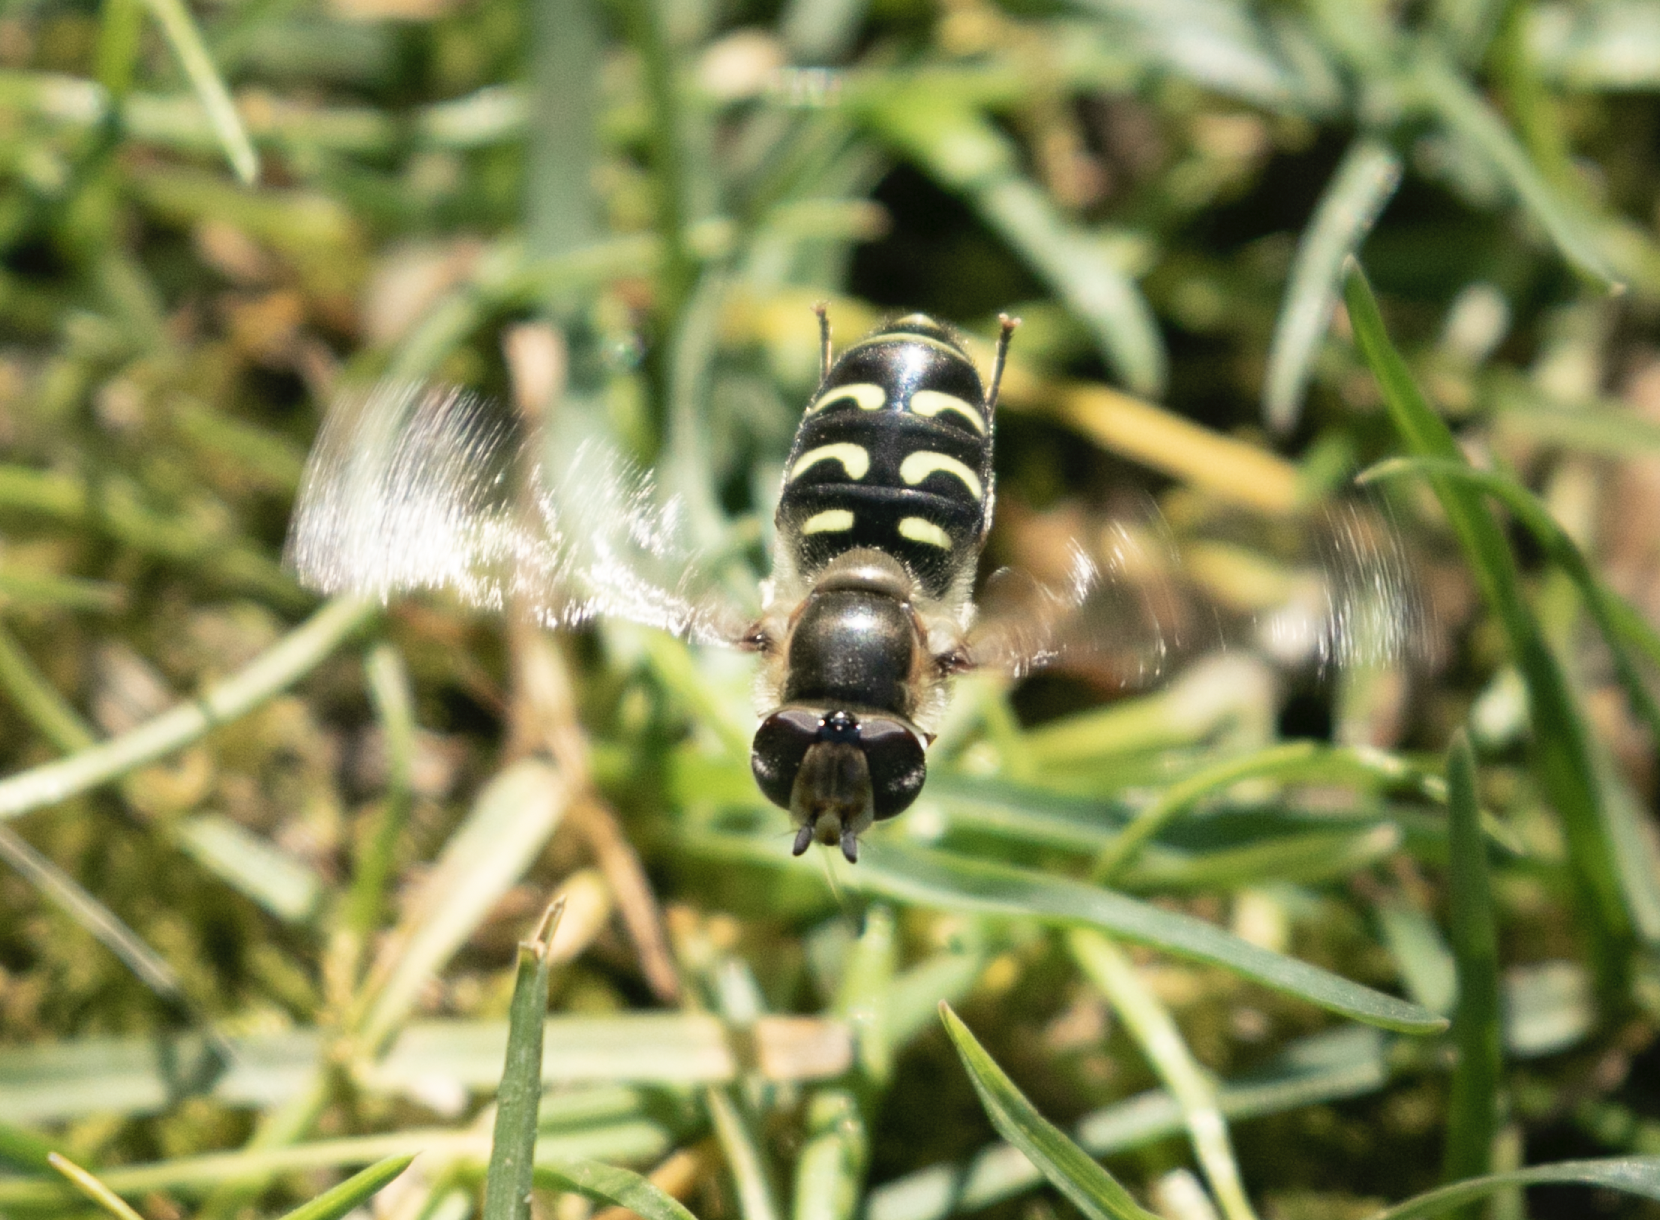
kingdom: Animalia
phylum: Arthropoda
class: Insecta
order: Diptera
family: Syrphidae
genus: Scaeva
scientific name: Scaeva selenitica
